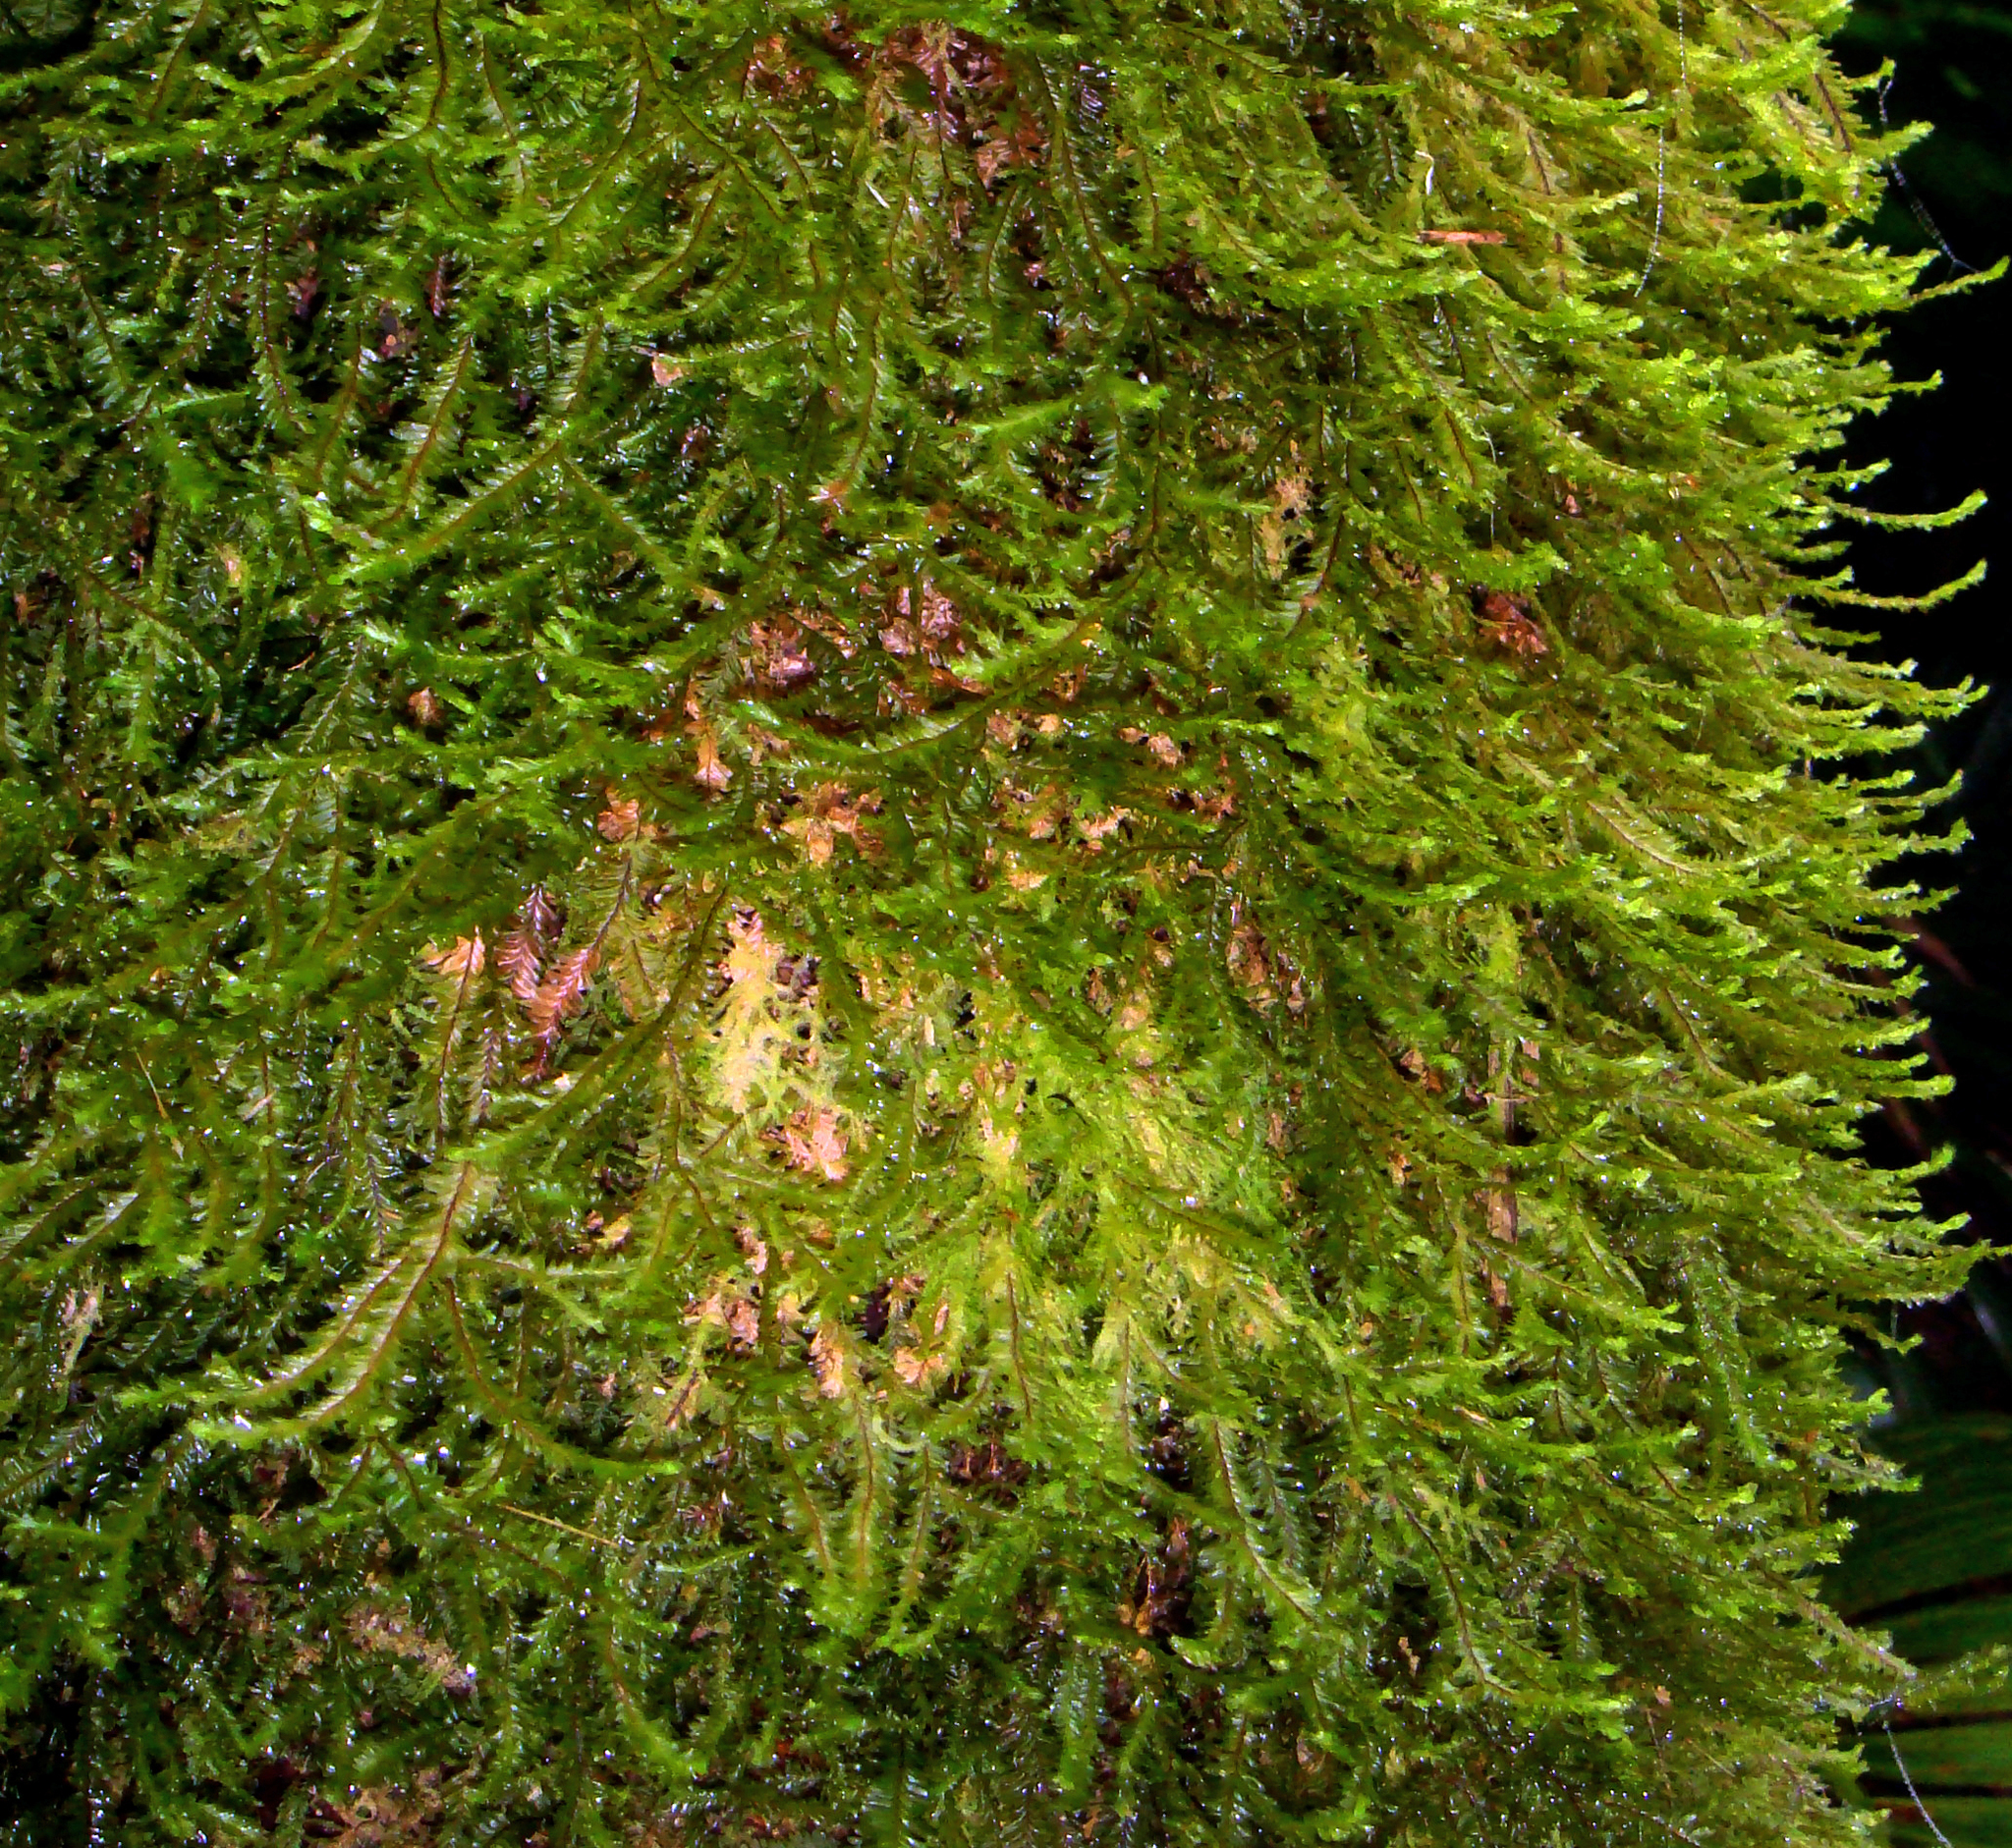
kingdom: Plantae
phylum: Marchantiophyta
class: Jungermanniopsida
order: Jungermanniales
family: Plagiochilaceae
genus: Plagiochila
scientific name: Plagiochila pacifica
